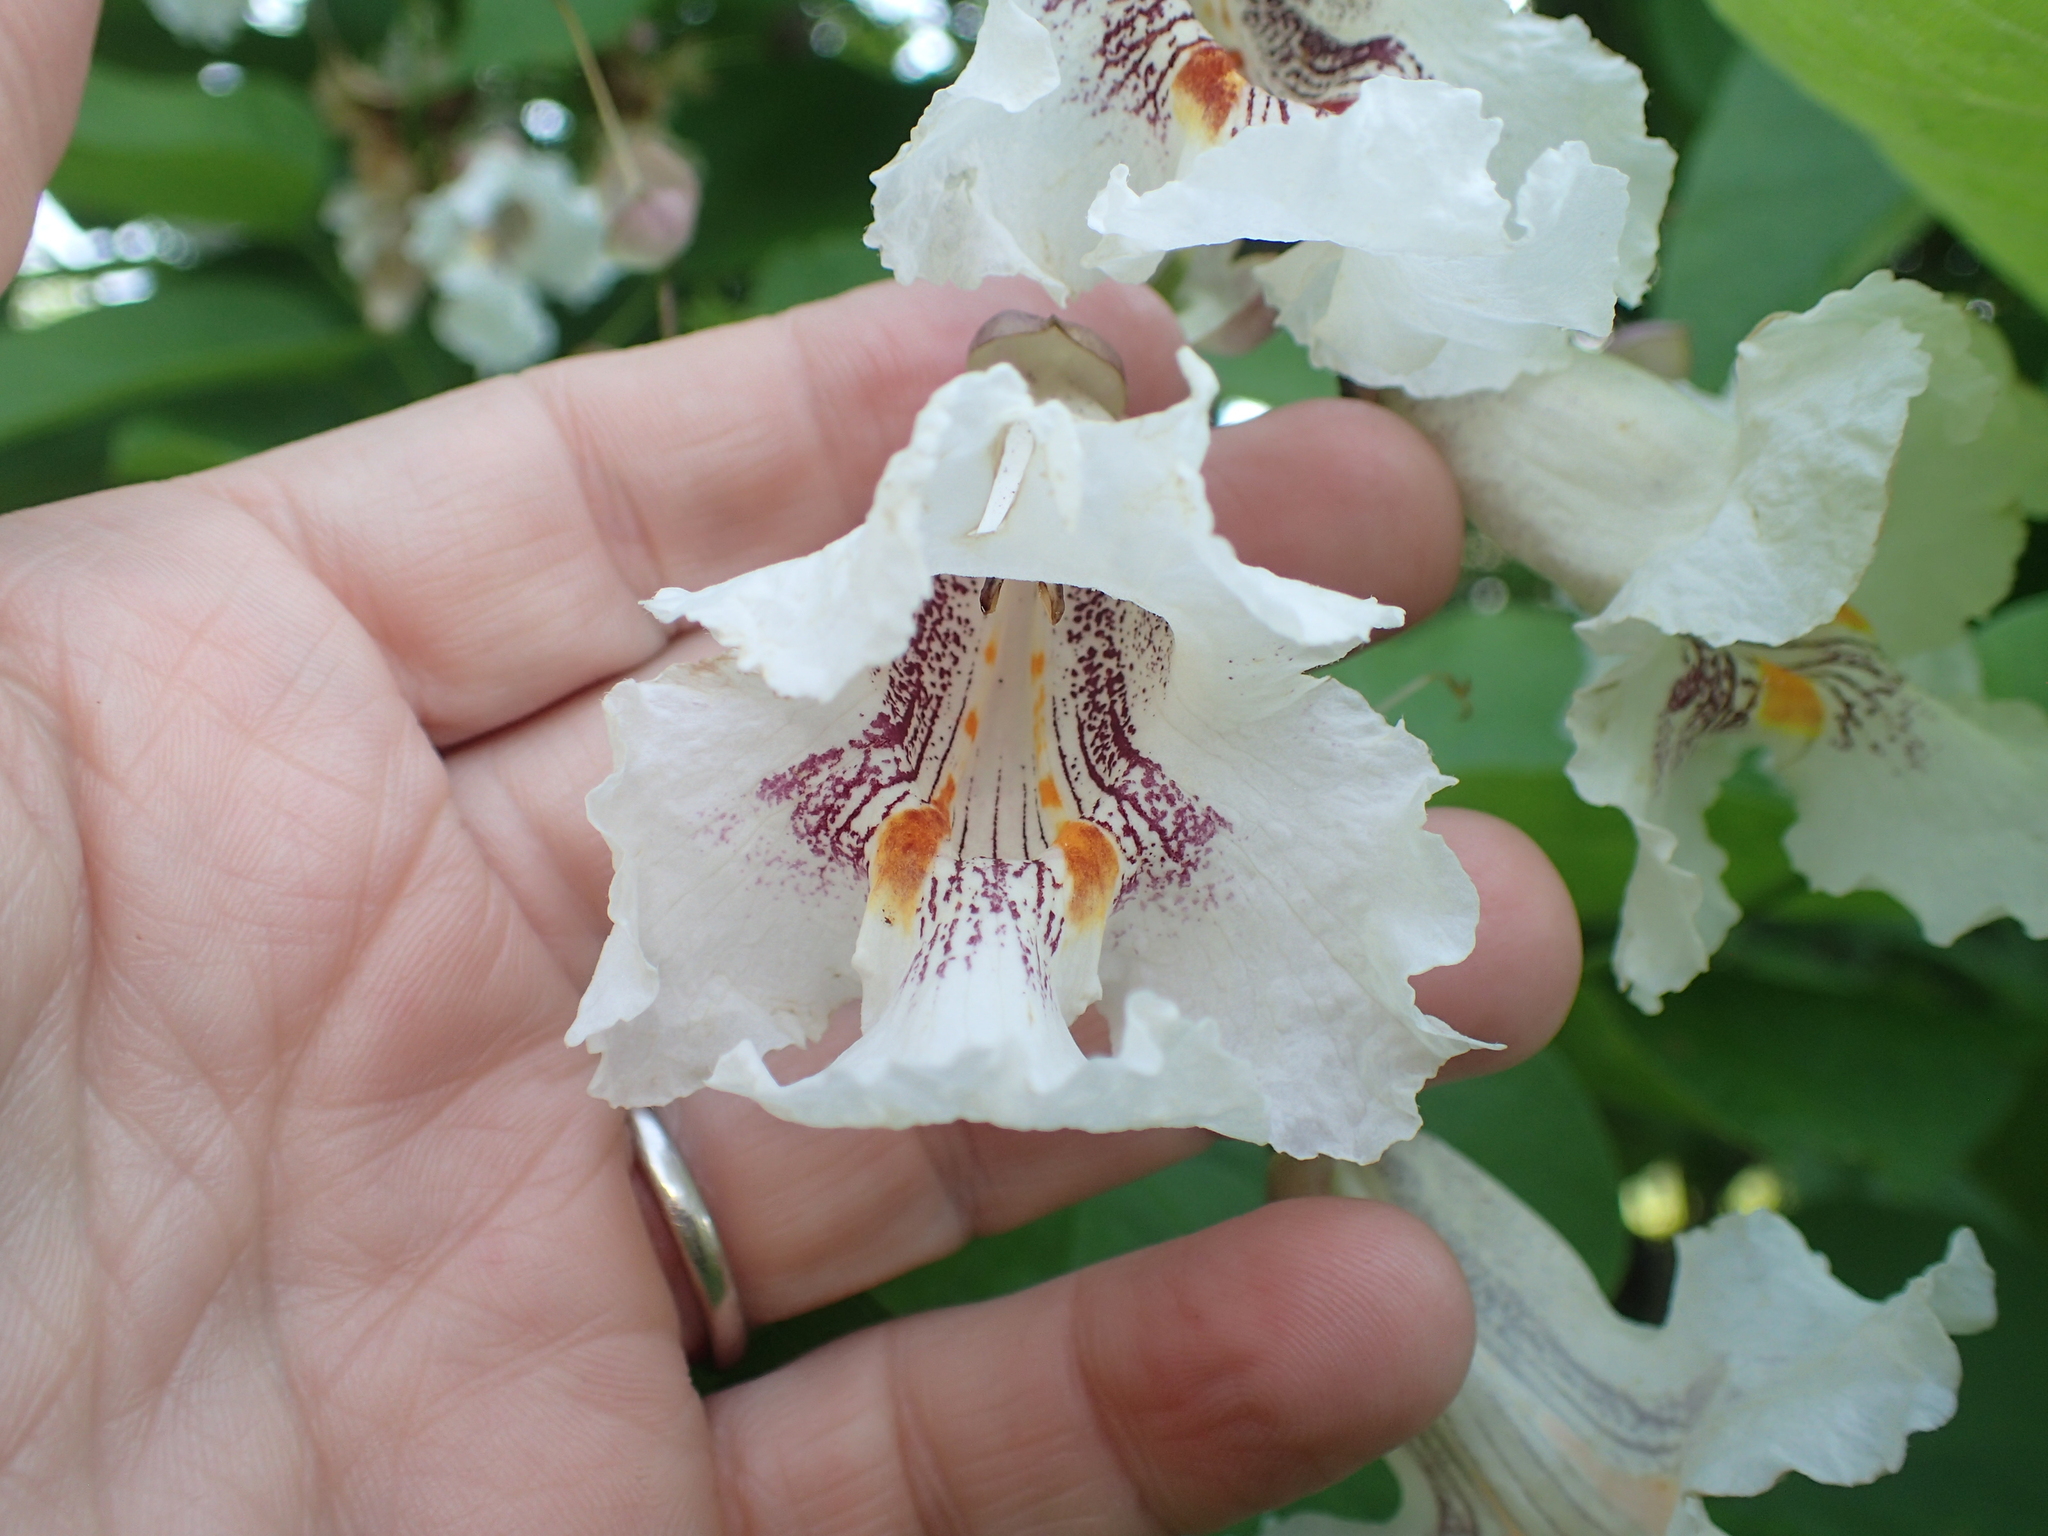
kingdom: Plantae
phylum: Tracheophyta
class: Magnoliopsida
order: Lamiales
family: Bignoniaceae
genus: Catalpa
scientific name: Catalpa speciosa
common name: Northern catalpa
